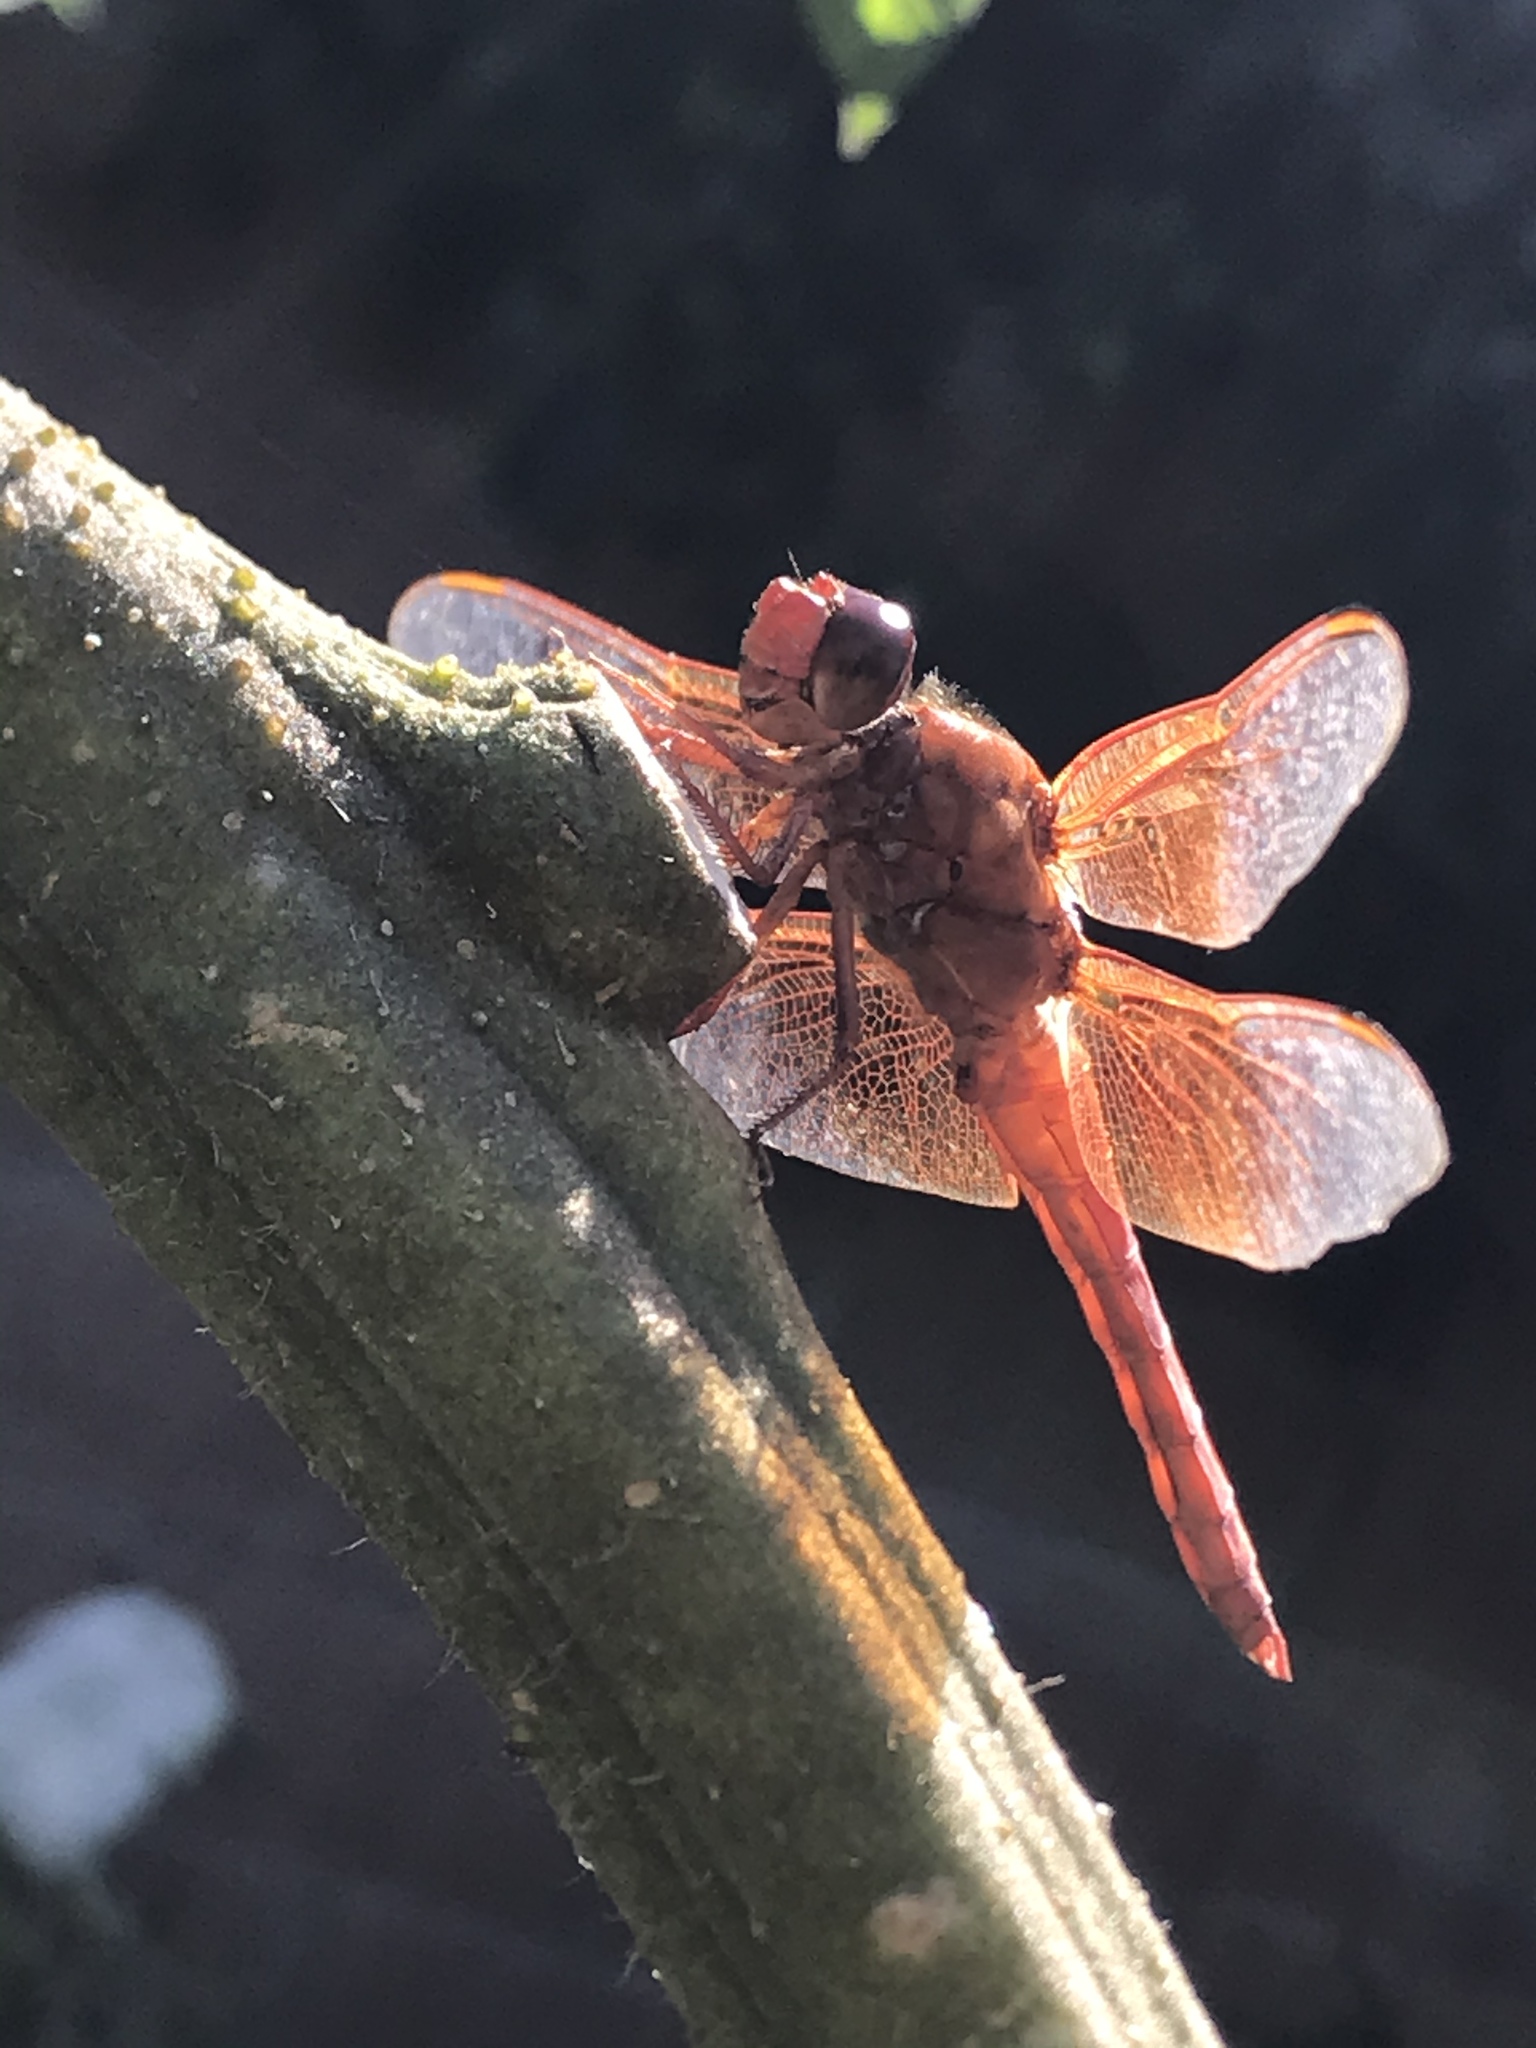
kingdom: Animalia
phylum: Arthropoda
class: Insecta
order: Odonata
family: Libellulidae
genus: Libellula
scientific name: Libellula saturata
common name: Flame skimmer
